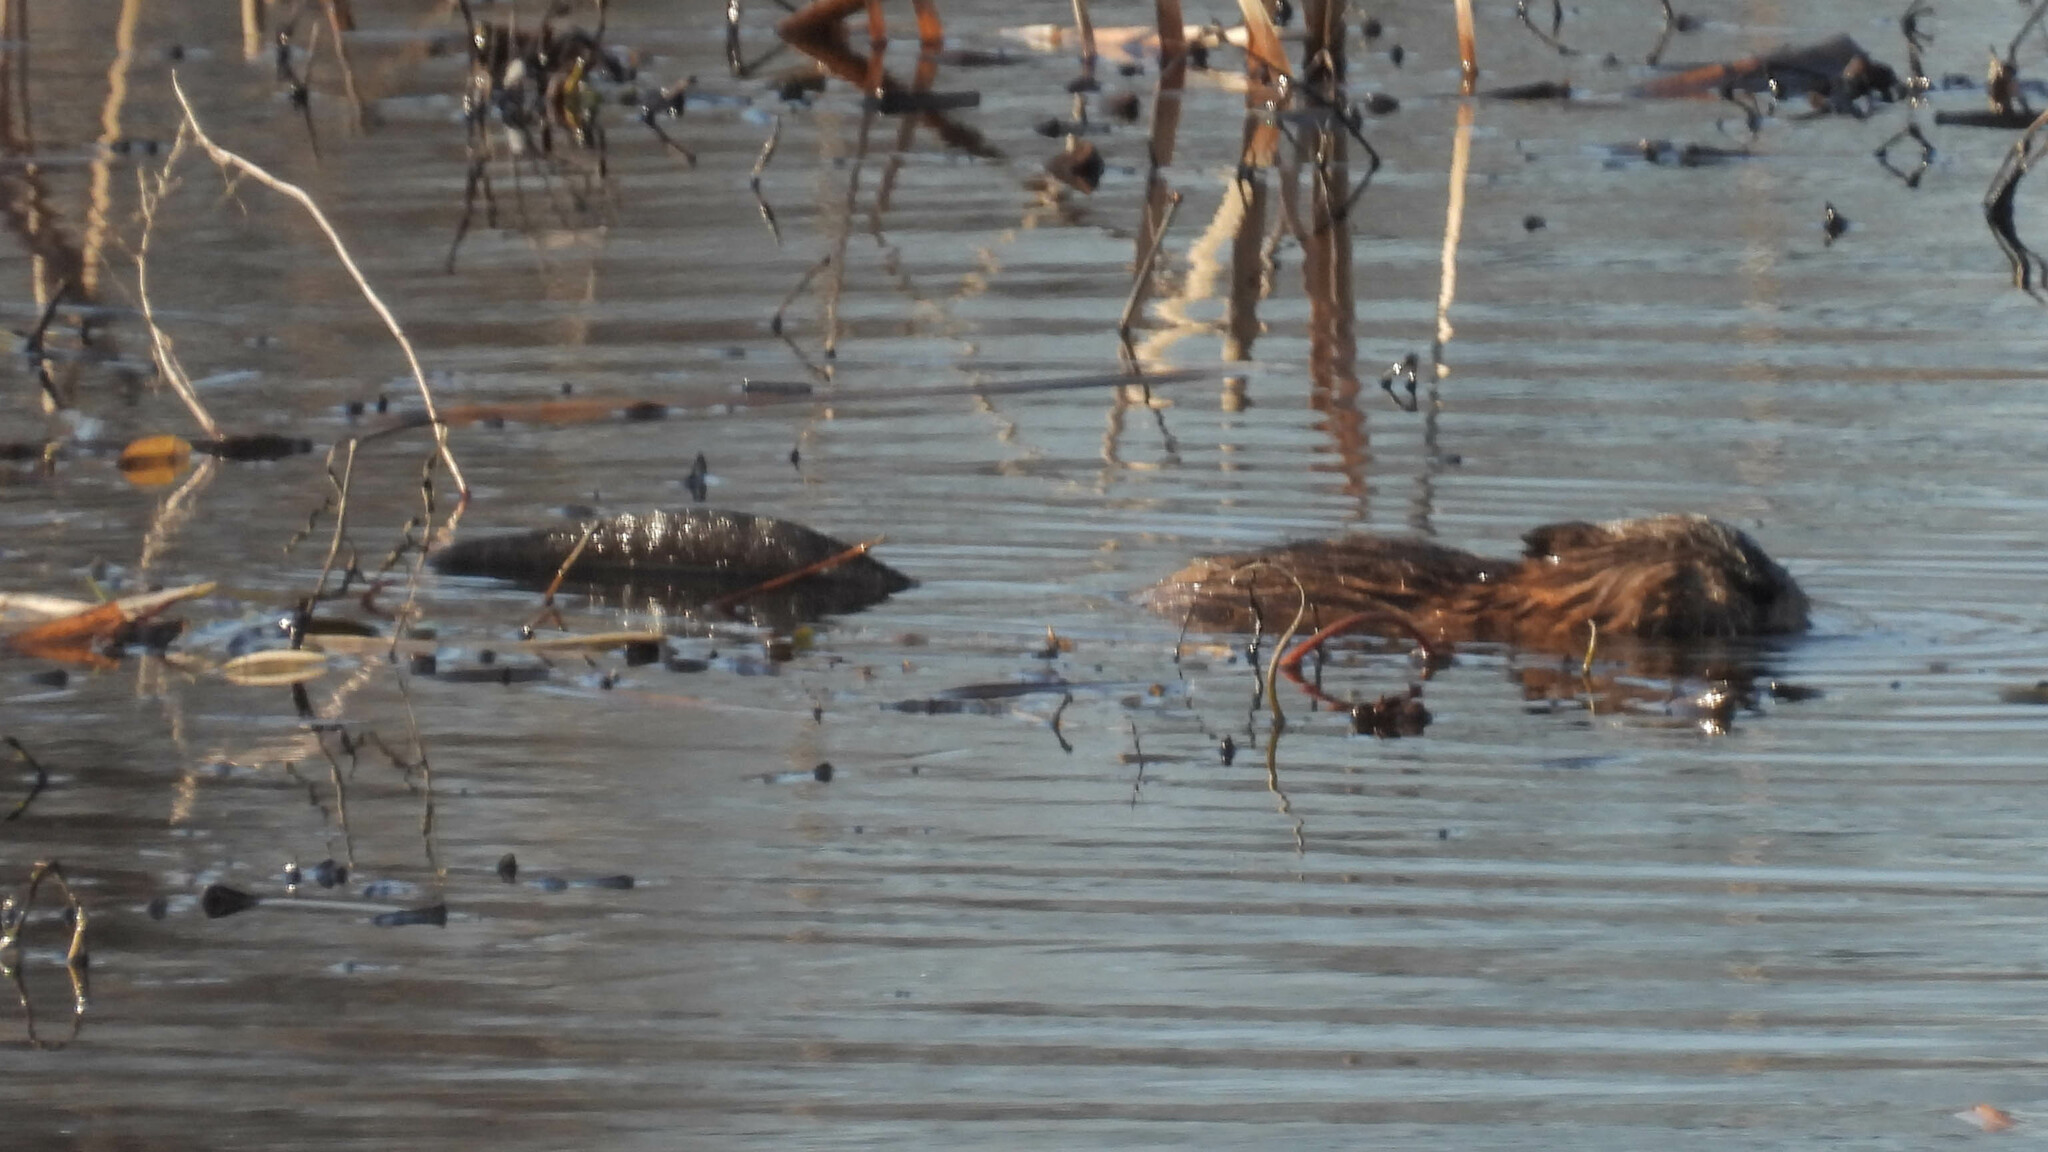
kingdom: Animalia
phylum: Chordata
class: Mammalia
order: Rodentia
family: Cricetidae
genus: Ondatra
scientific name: Ondatra zibethicus
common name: Muskrat
